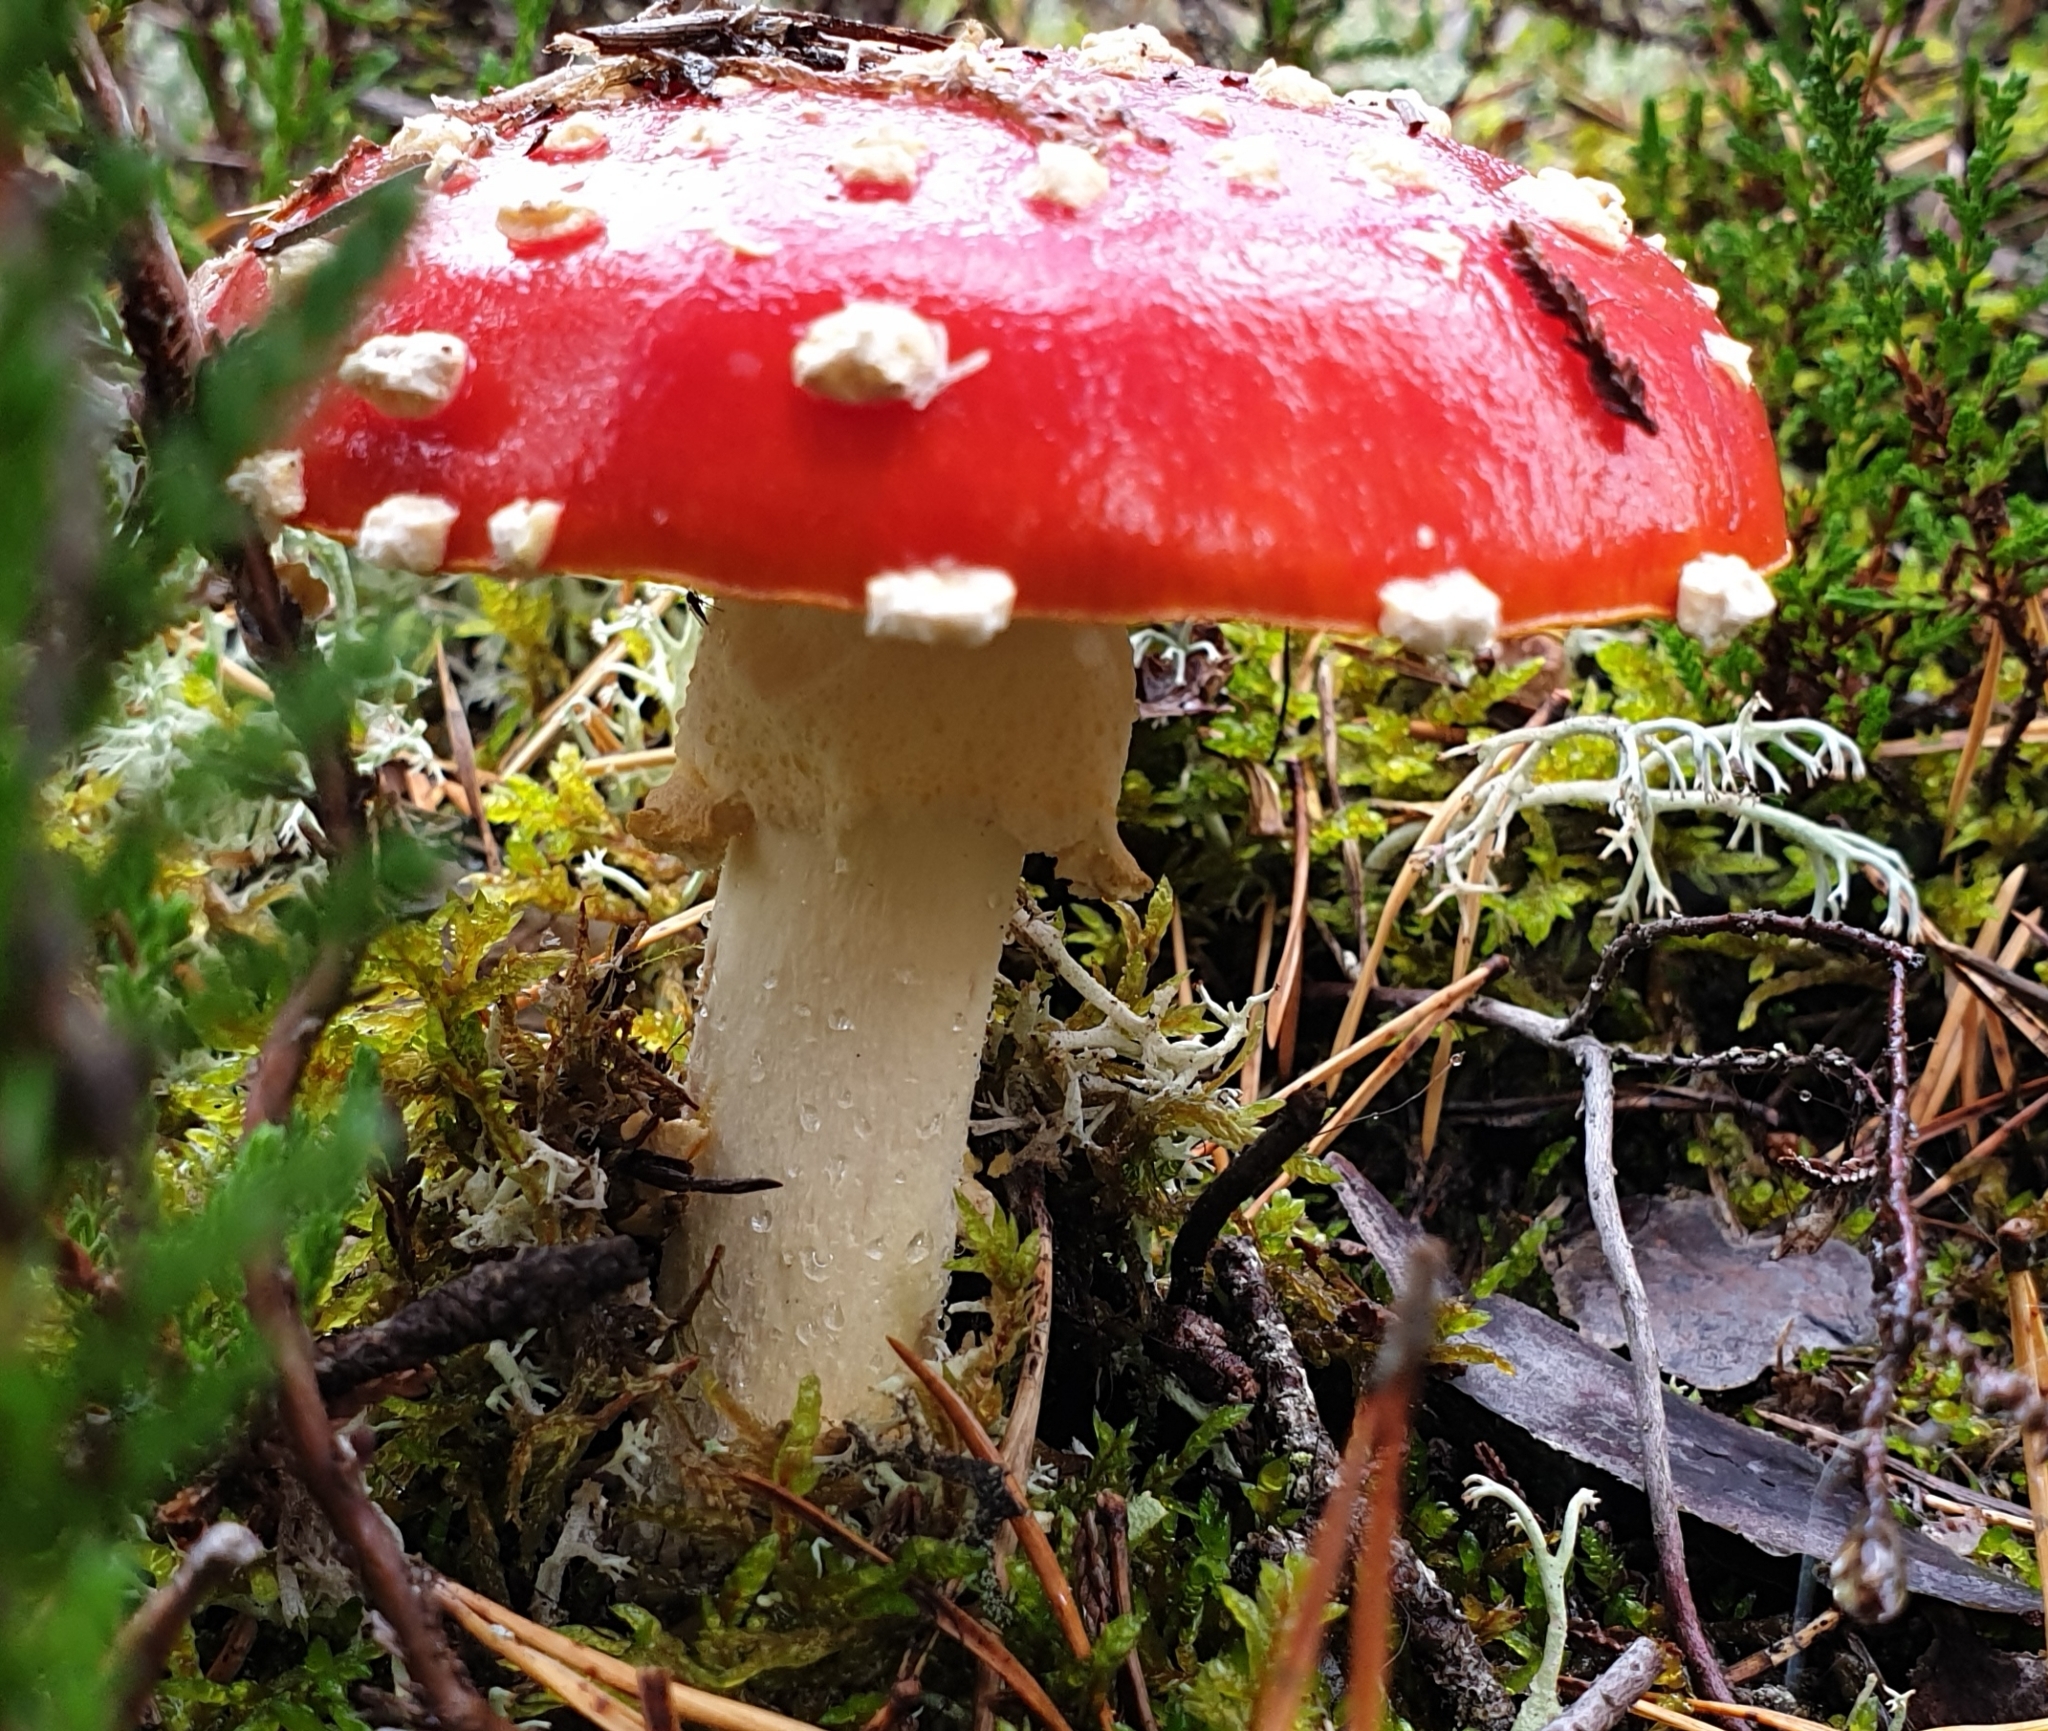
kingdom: Fungi
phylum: Basidiomycota
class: Agaricomycetes
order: Agaricales
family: Amanitaceae
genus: Amanita
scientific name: Amanita muscaria
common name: Fly agaric
